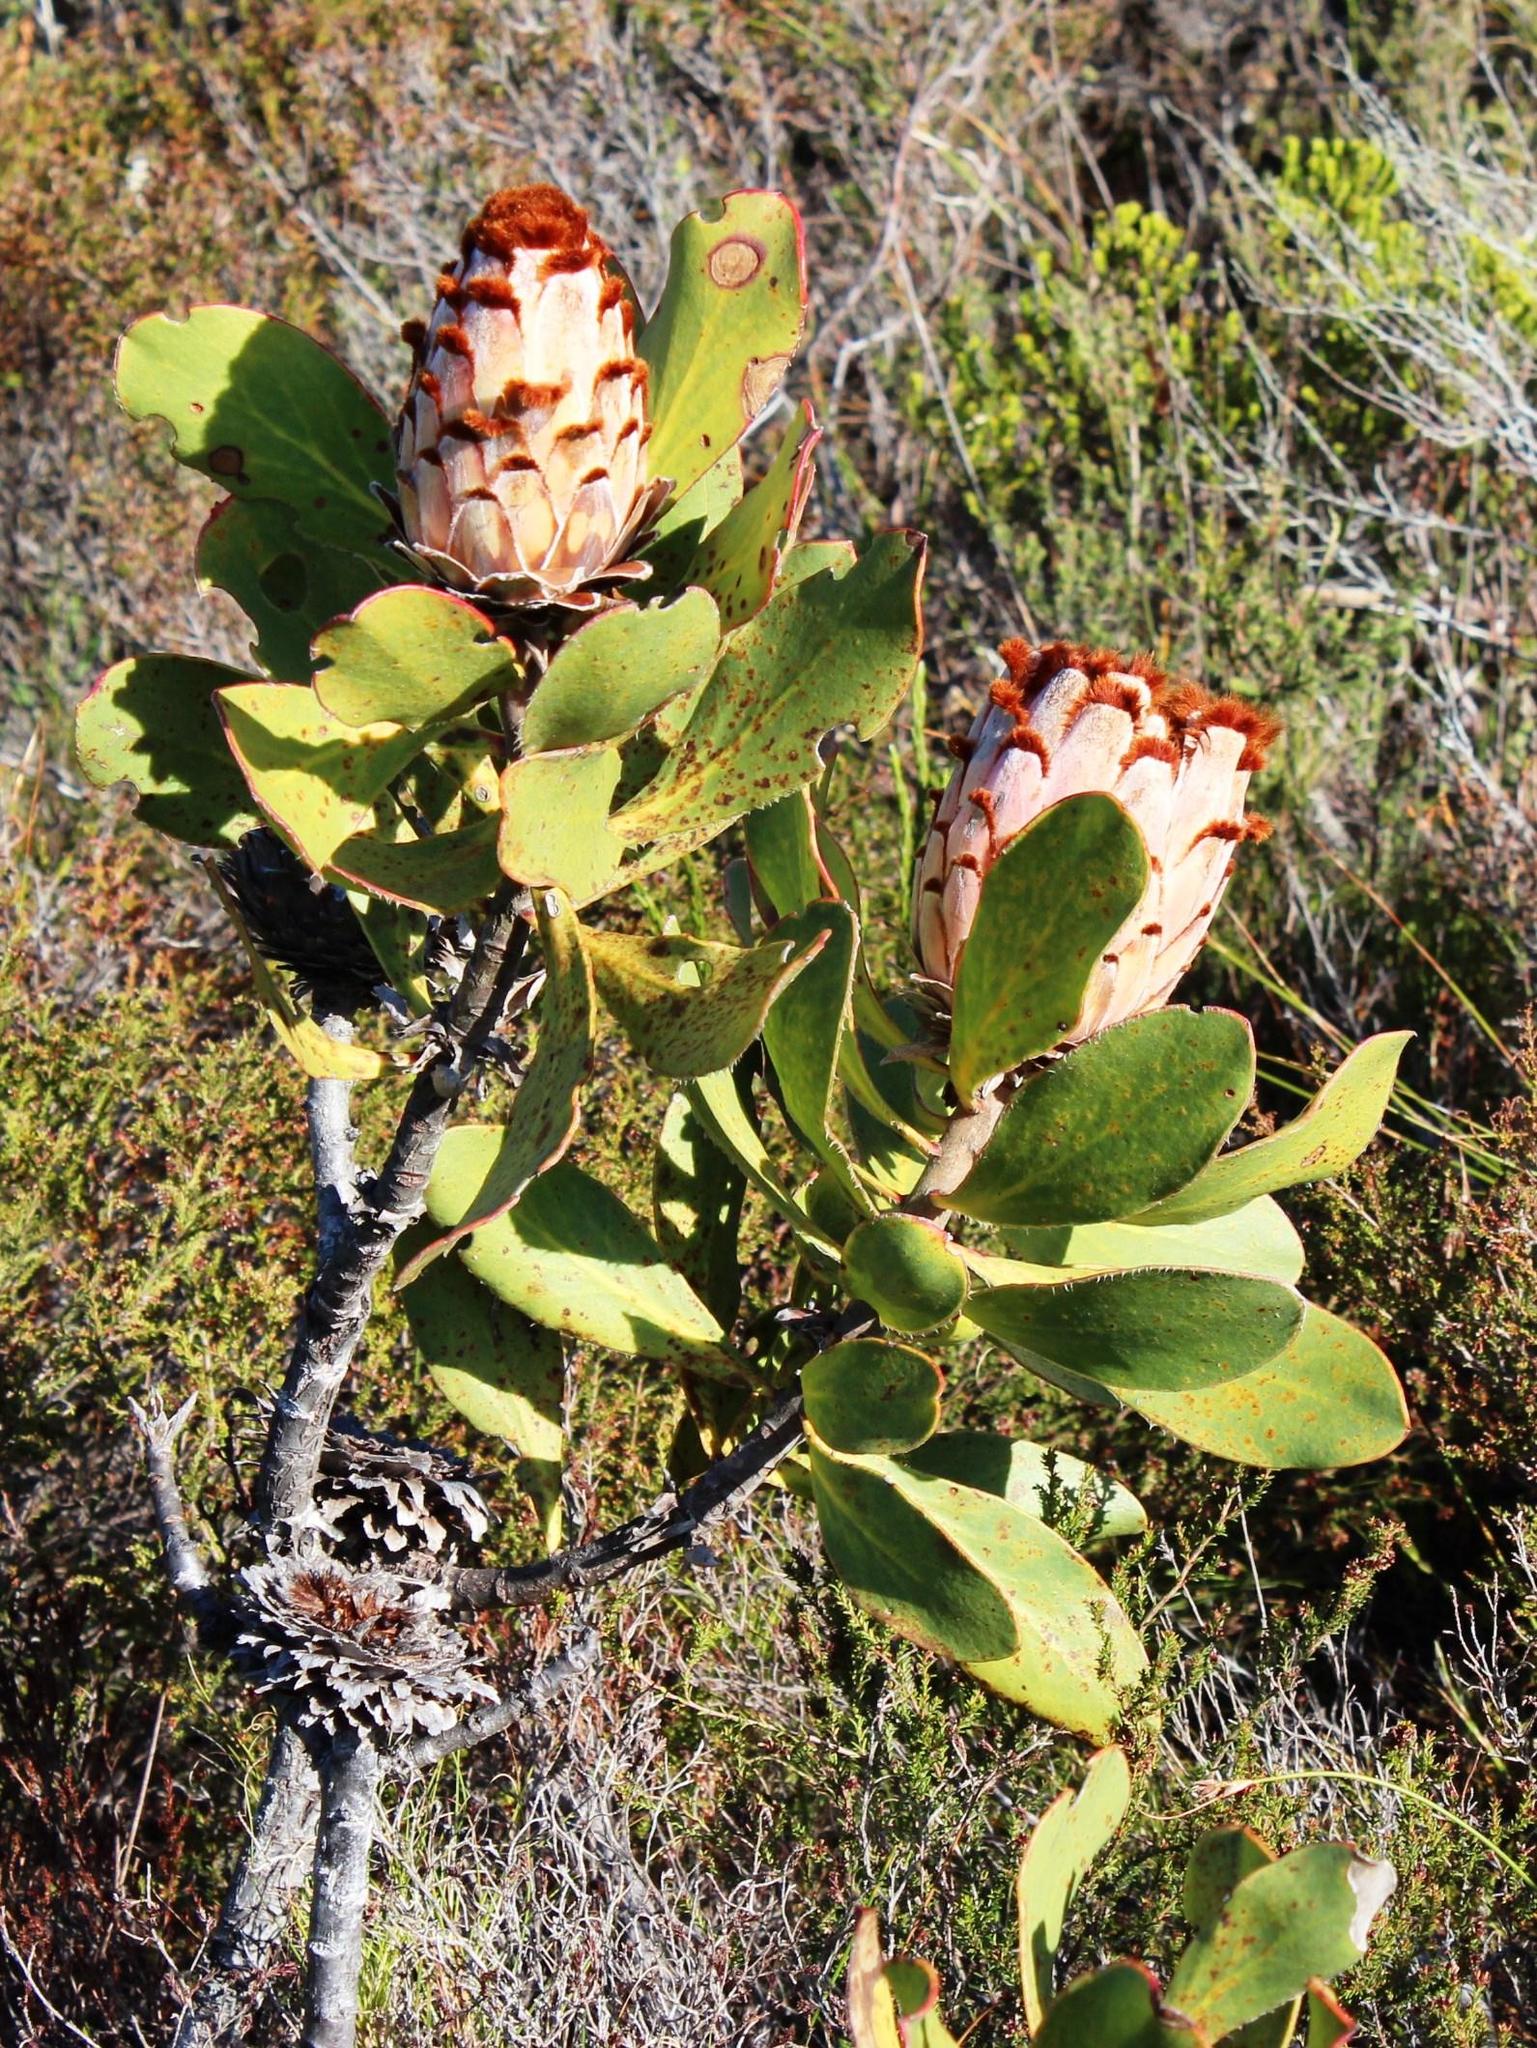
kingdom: Plantae
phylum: Tracheophyta
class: Magnoliopsida
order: Proteales
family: Proteaceae
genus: Protea
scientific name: Protea speciosa
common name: Brown-beard sugarbush
